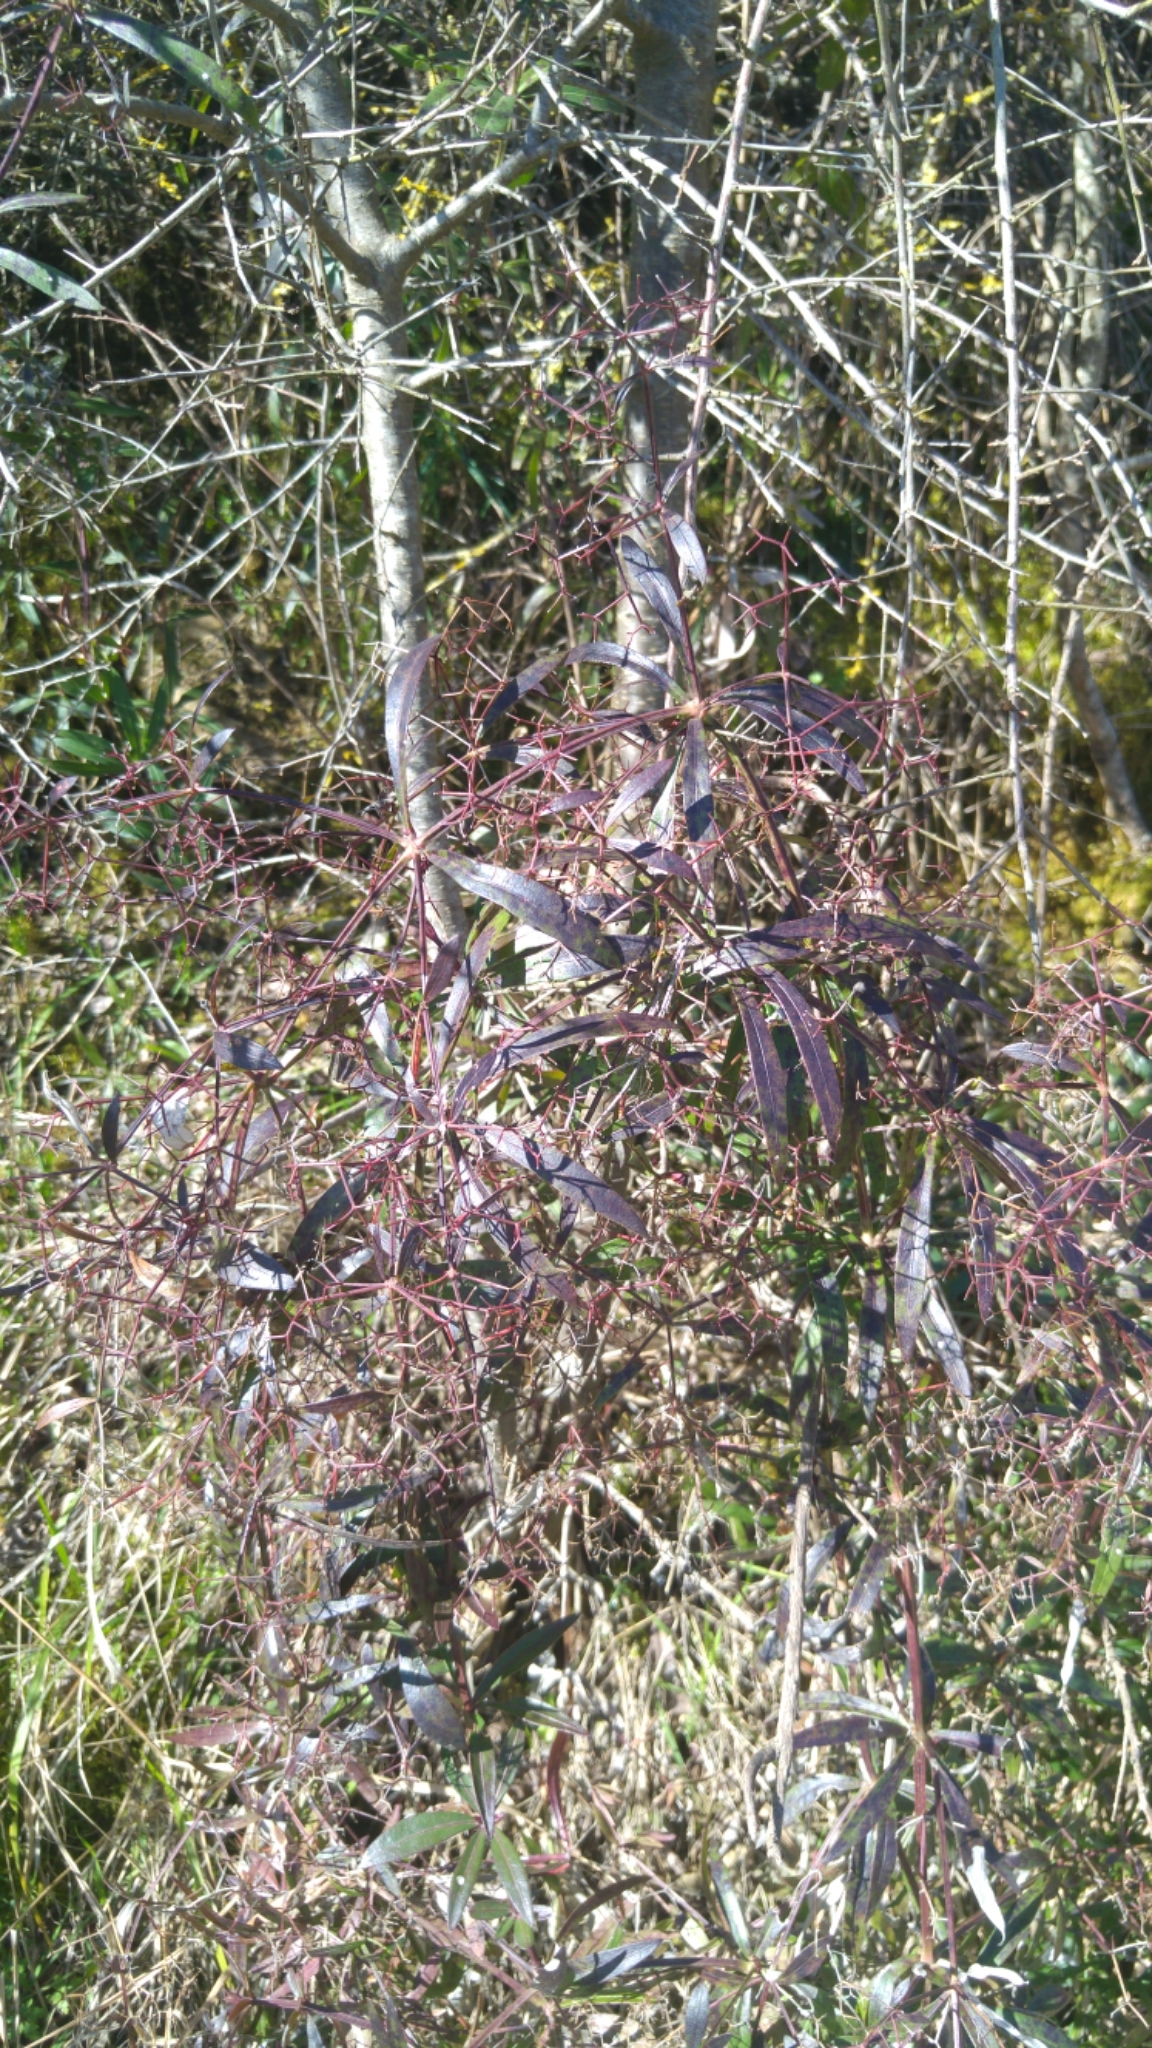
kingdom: Plantae
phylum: Tracheophyta
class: Magnoliopsida
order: Gentianales
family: Rubiaceae
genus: Rubia
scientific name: Rubia peregrina
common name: Wild madder
